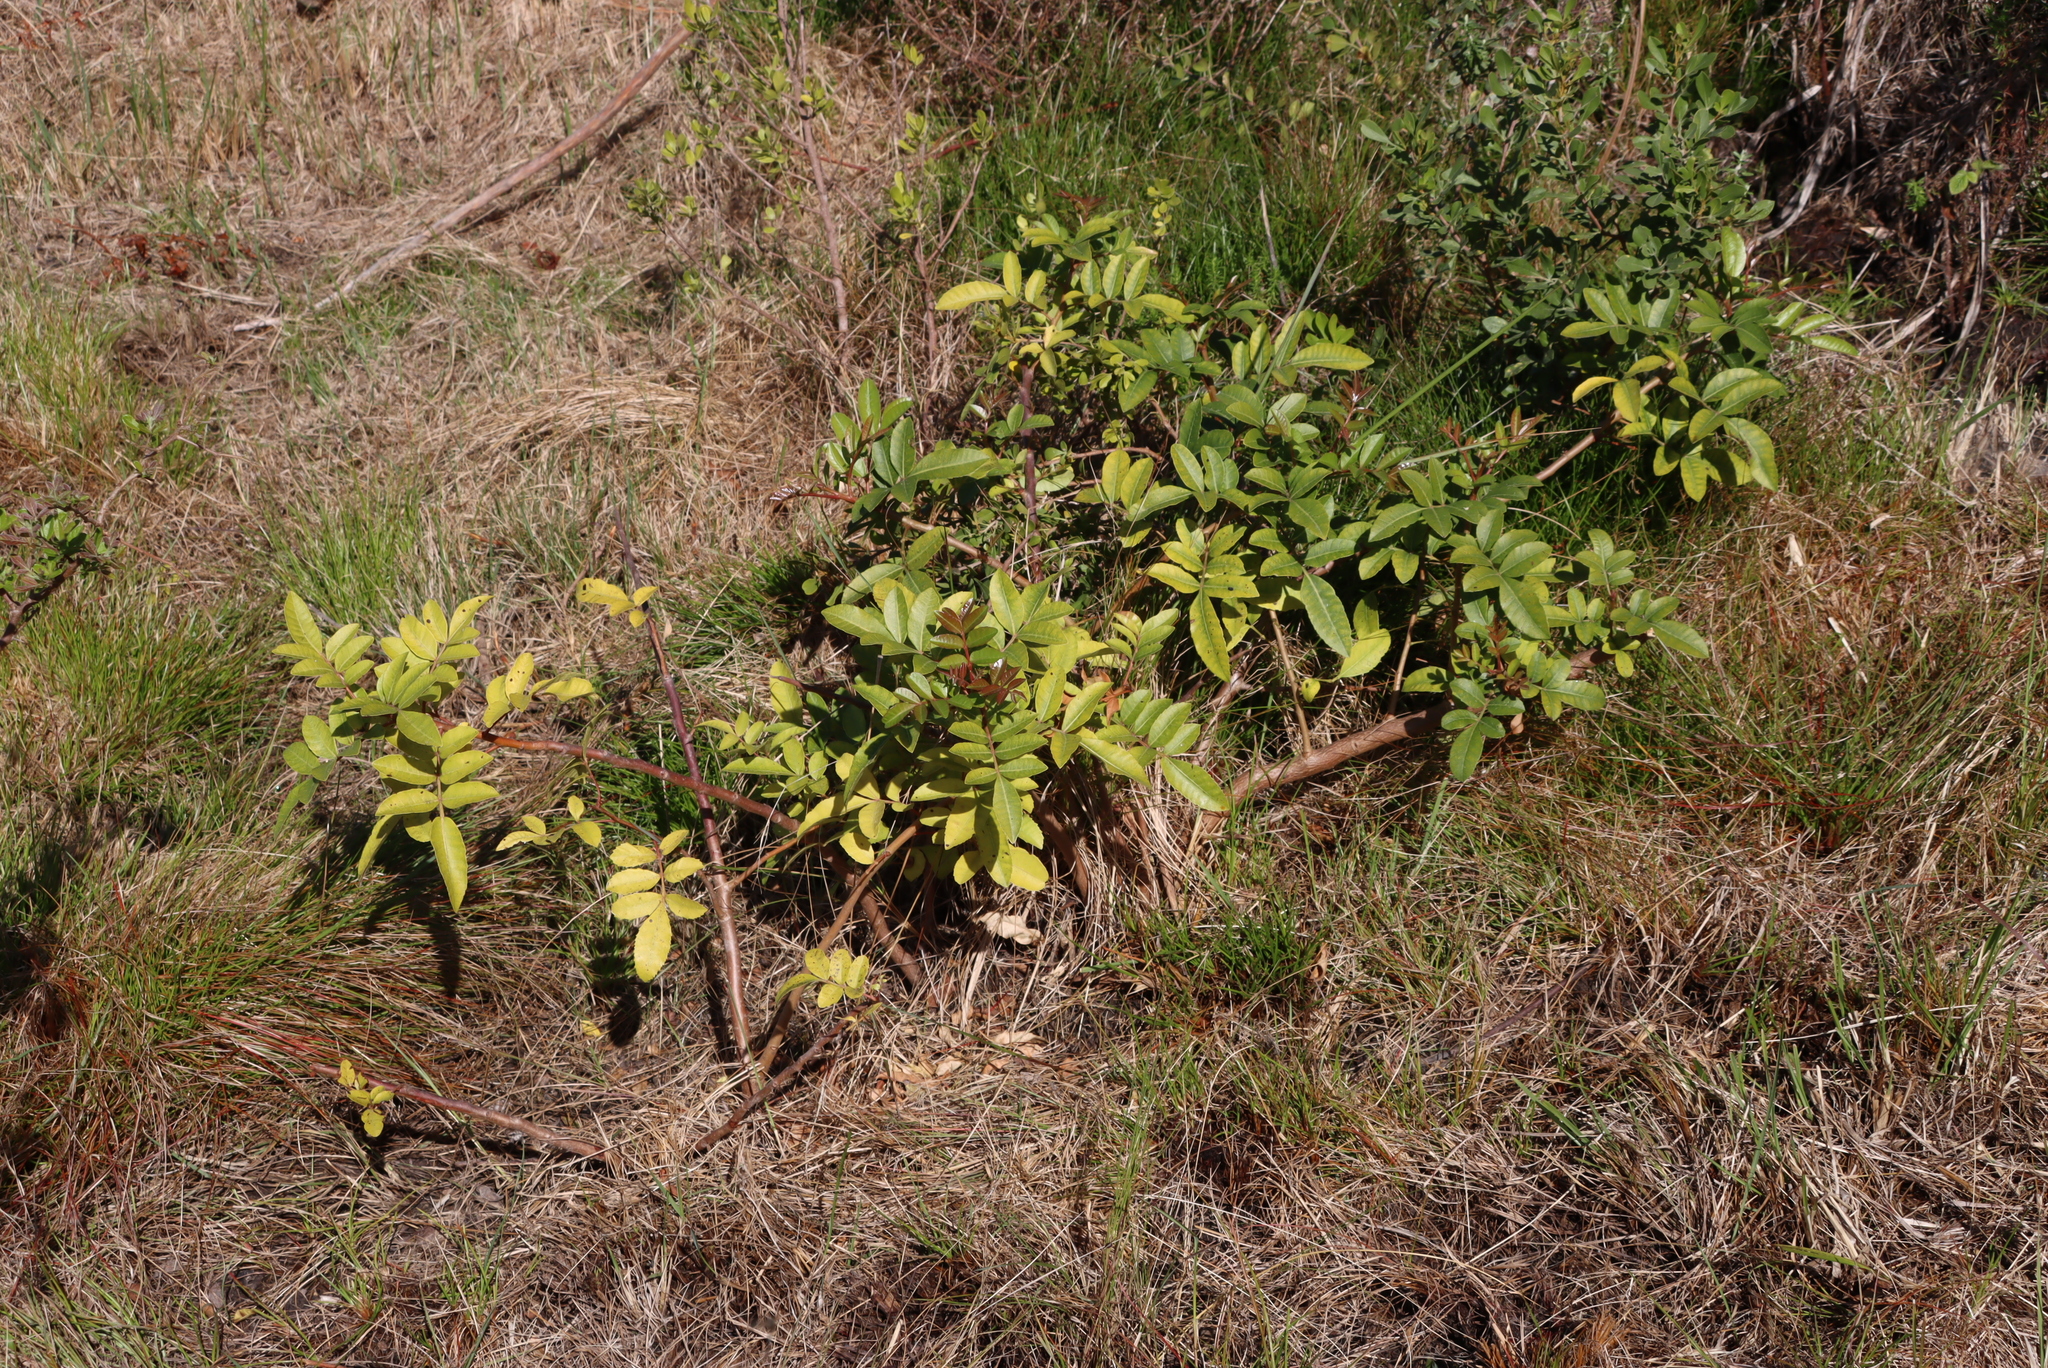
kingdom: Plantae
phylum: Tracheophyta
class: Magnoliopsida
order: Sapindales
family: Anacardiaceae
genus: Schinus
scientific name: Schinus terebinthifolia
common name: Brazilian peppertree
